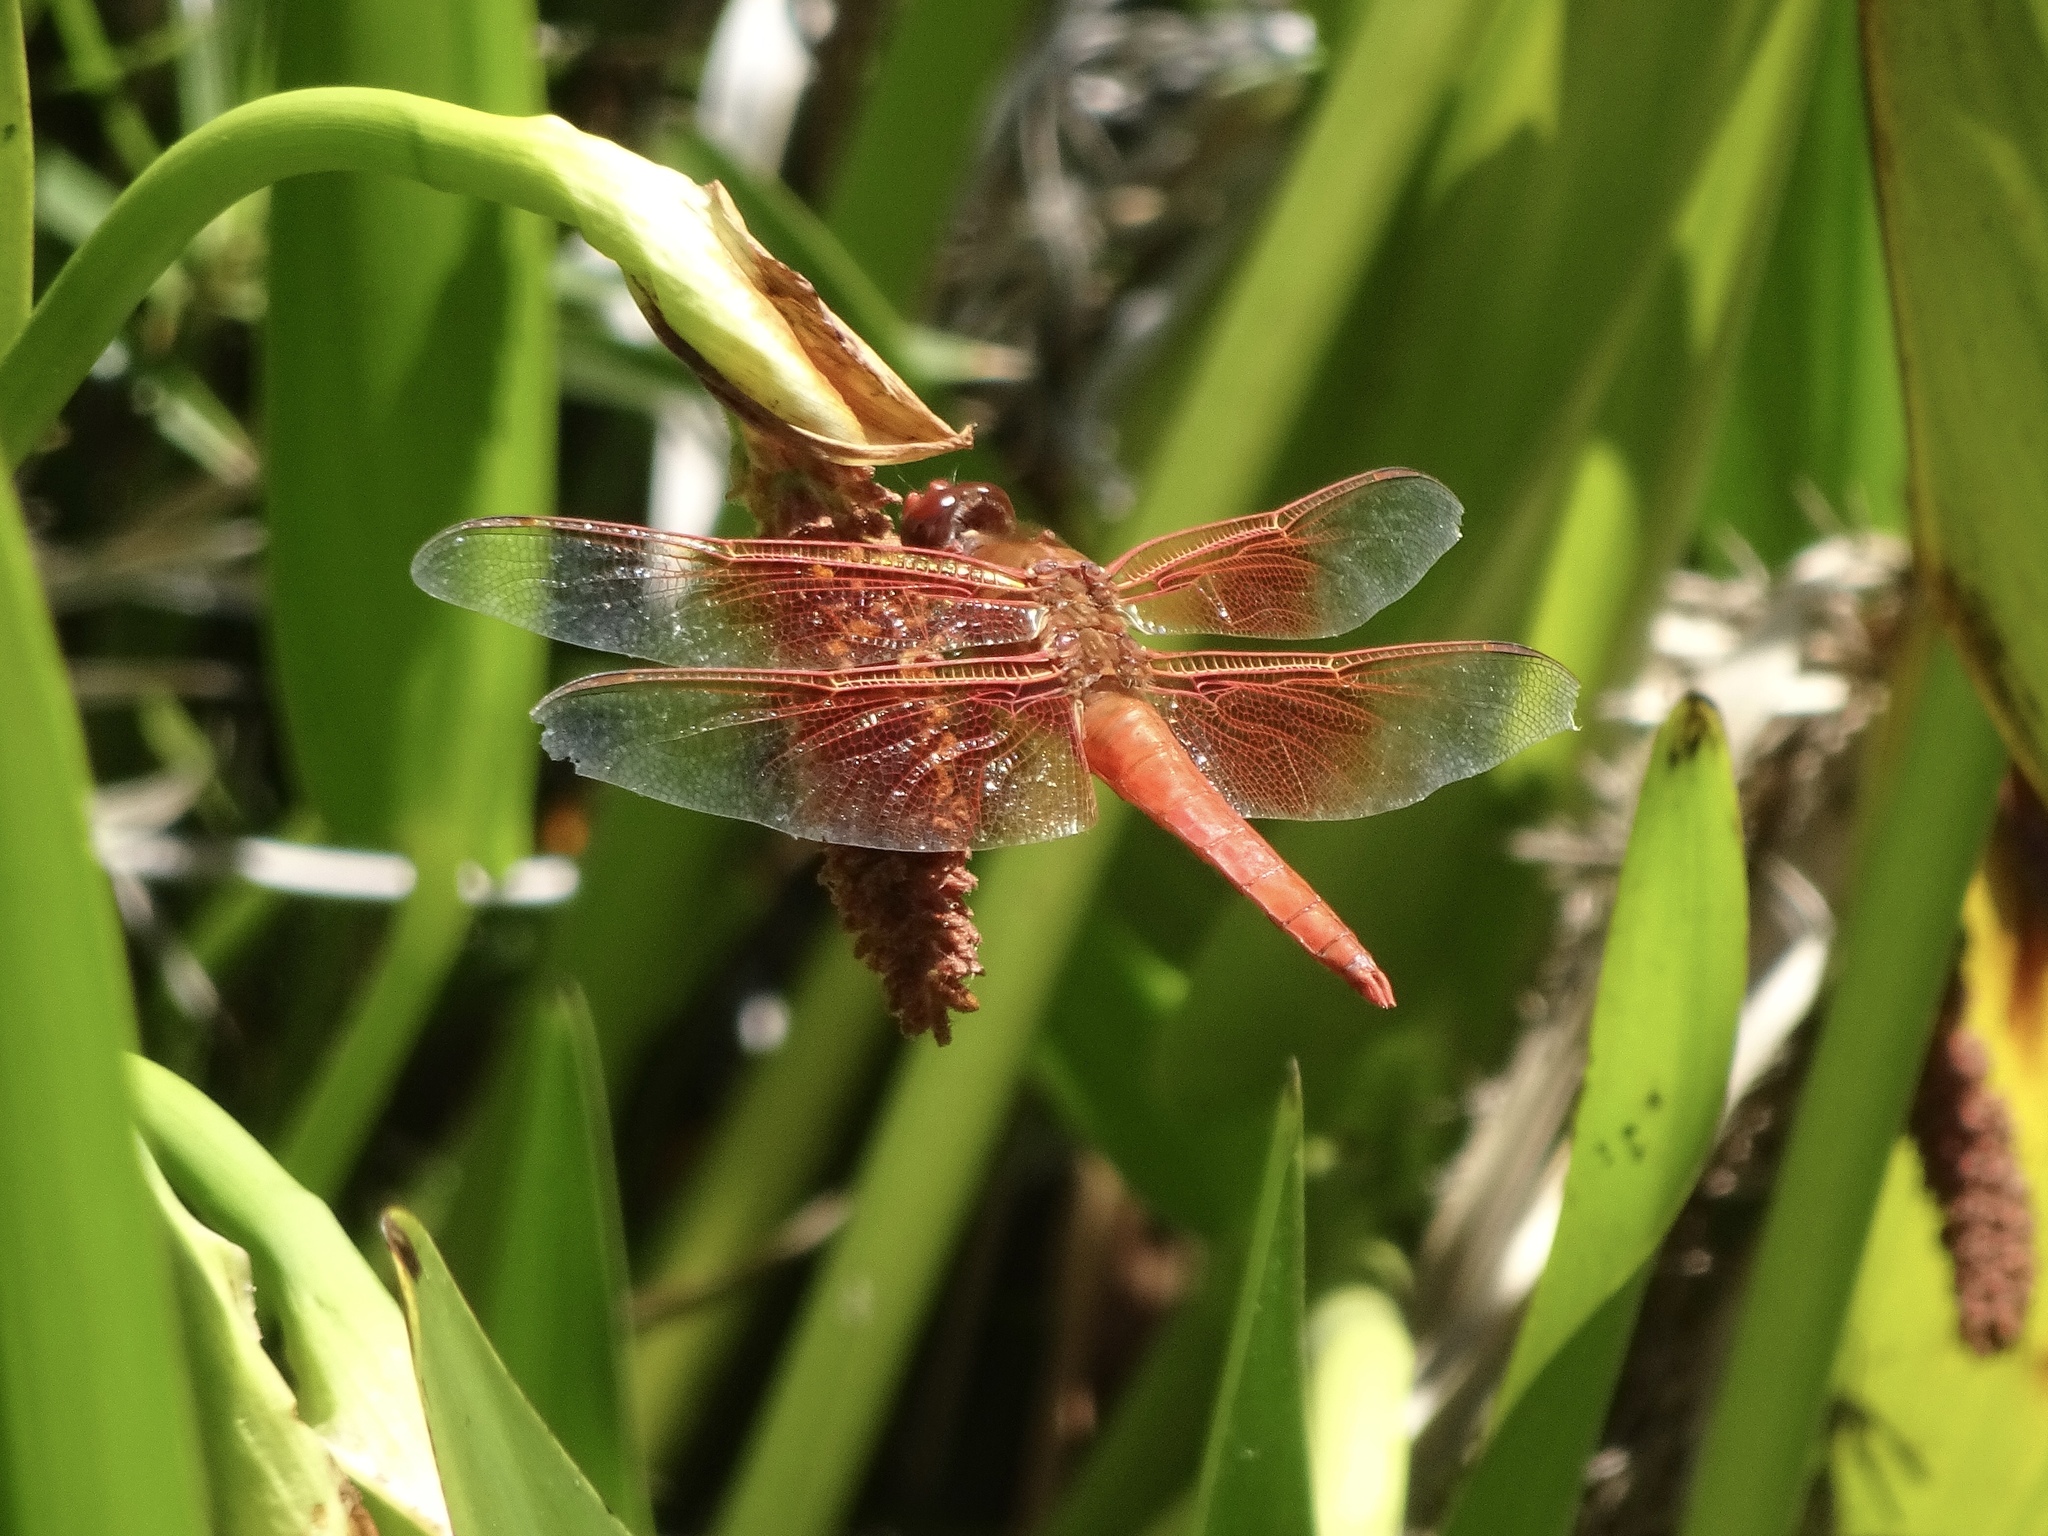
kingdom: Animalia
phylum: Arthropoda
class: Insecta
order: Odonata
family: Libellulidae
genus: Libellula
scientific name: Libellula saturata
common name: Flame skimmer
